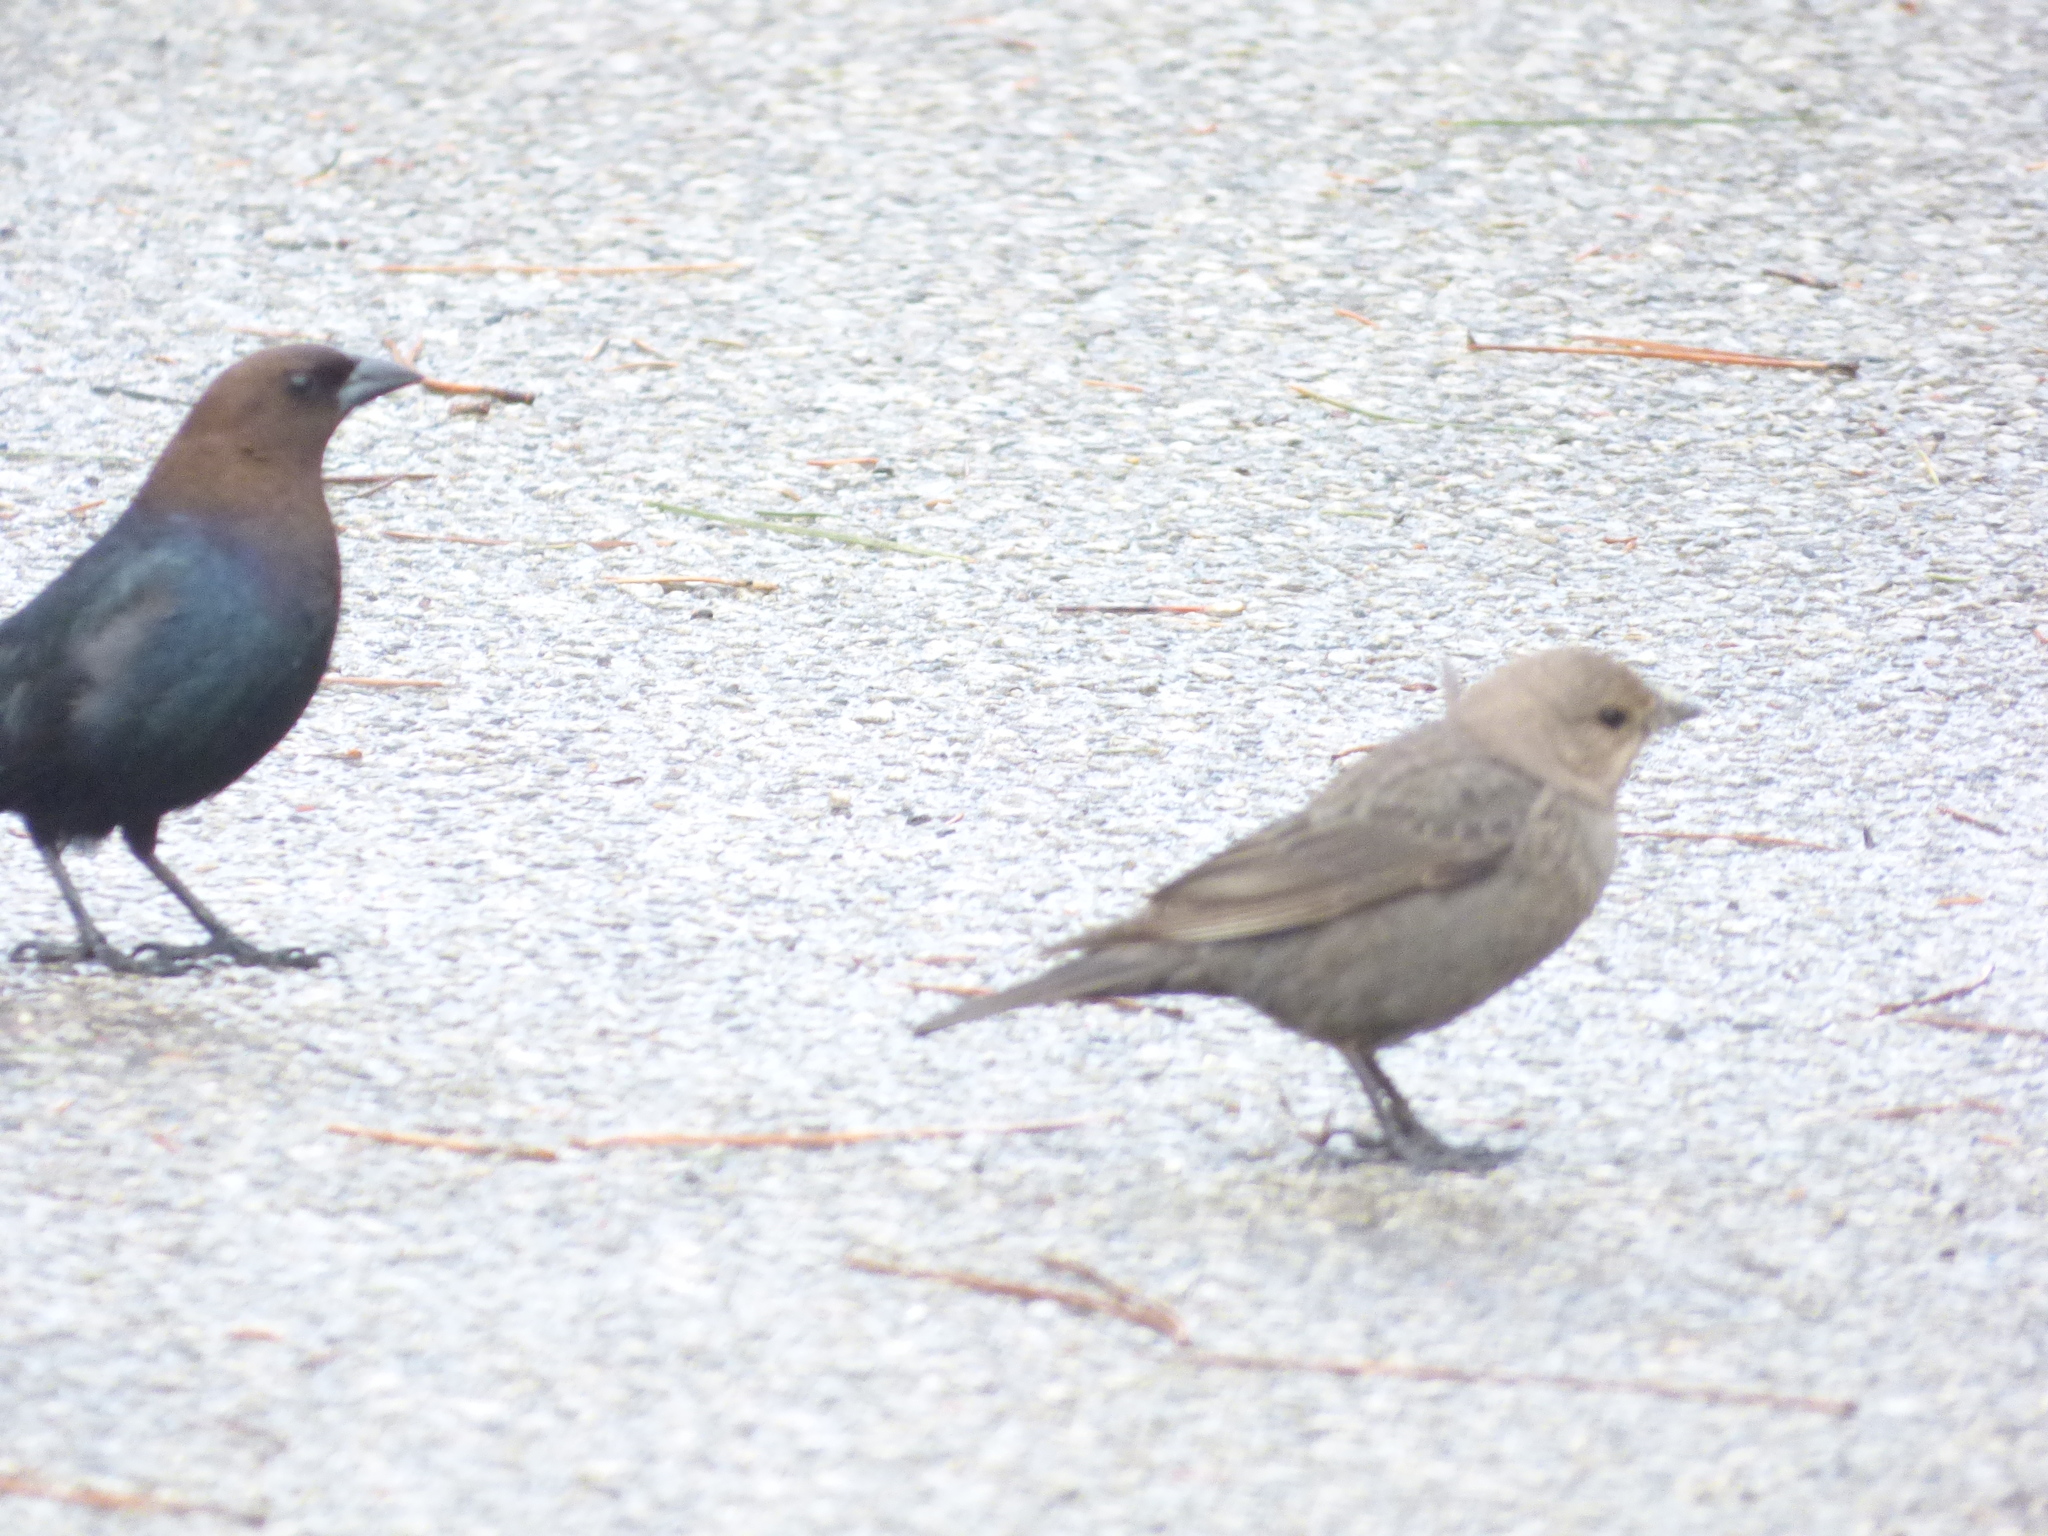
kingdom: Animalia
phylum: Chordata
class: Aves
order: Passeriformes
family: Icteridae
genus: Molothrus
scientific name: Molothrus ater
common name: Brown-headed cowbird
